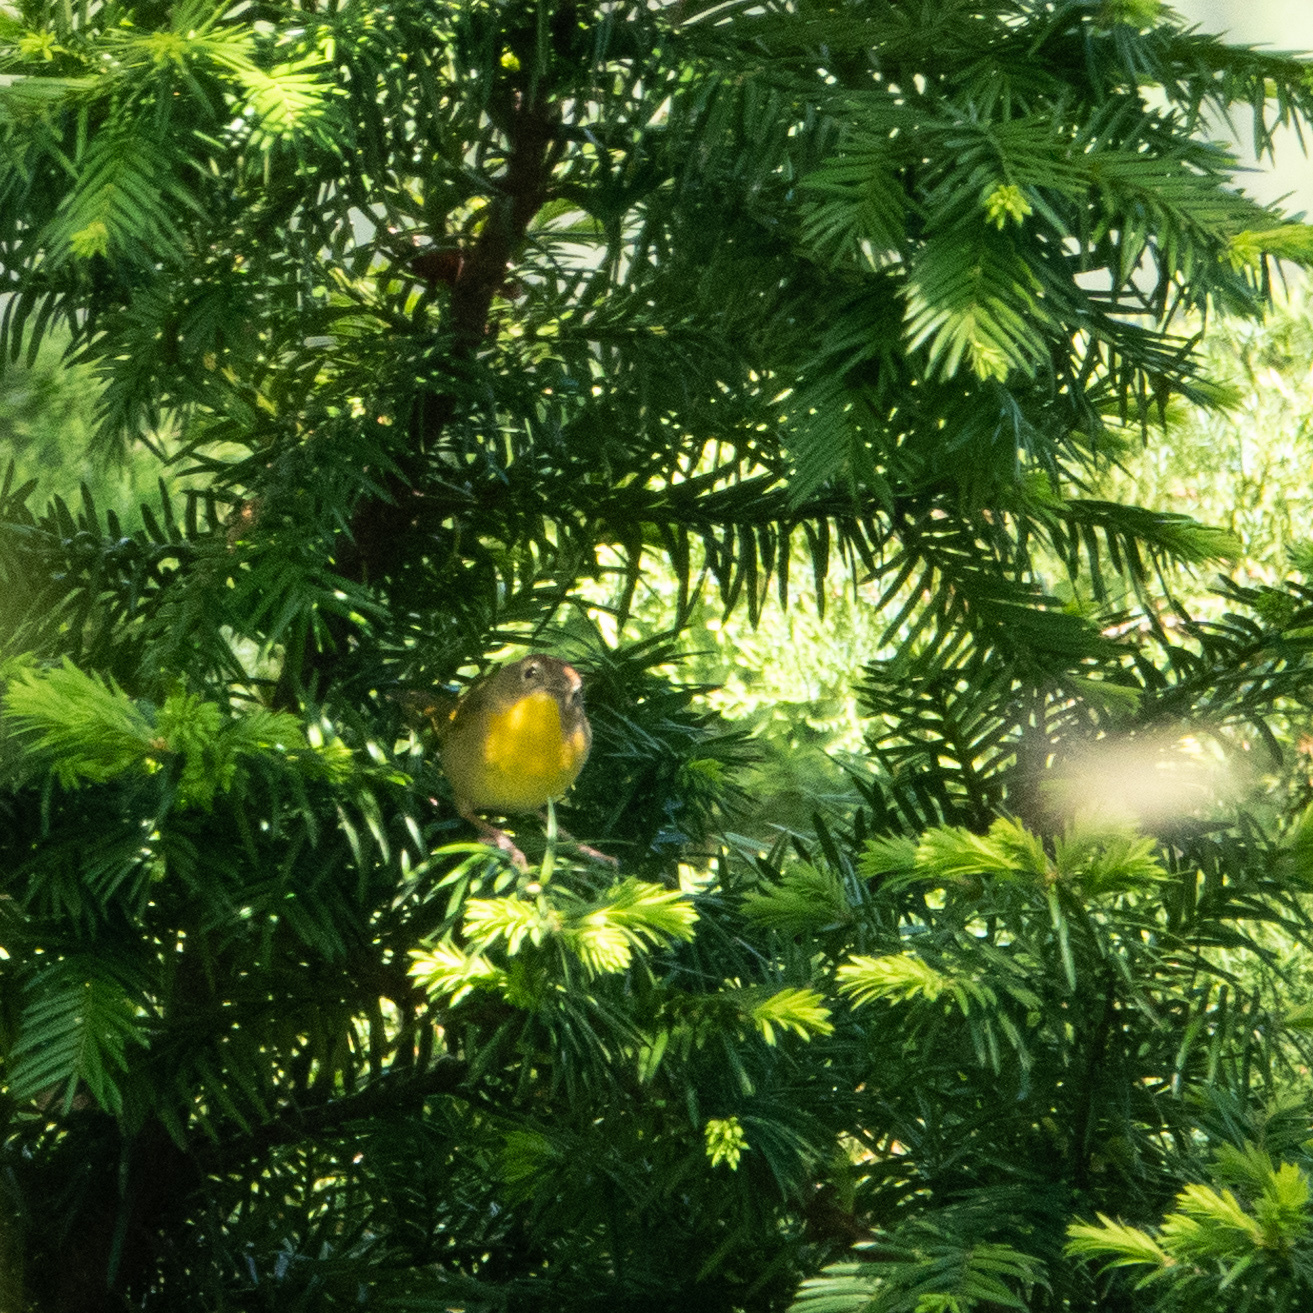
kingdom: Animalia
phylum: Chordata
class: Aves
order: Passeriformes
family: Parulidae
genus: Geothlypis
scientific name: Geothlypis trichas
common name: Common yellowthroat
